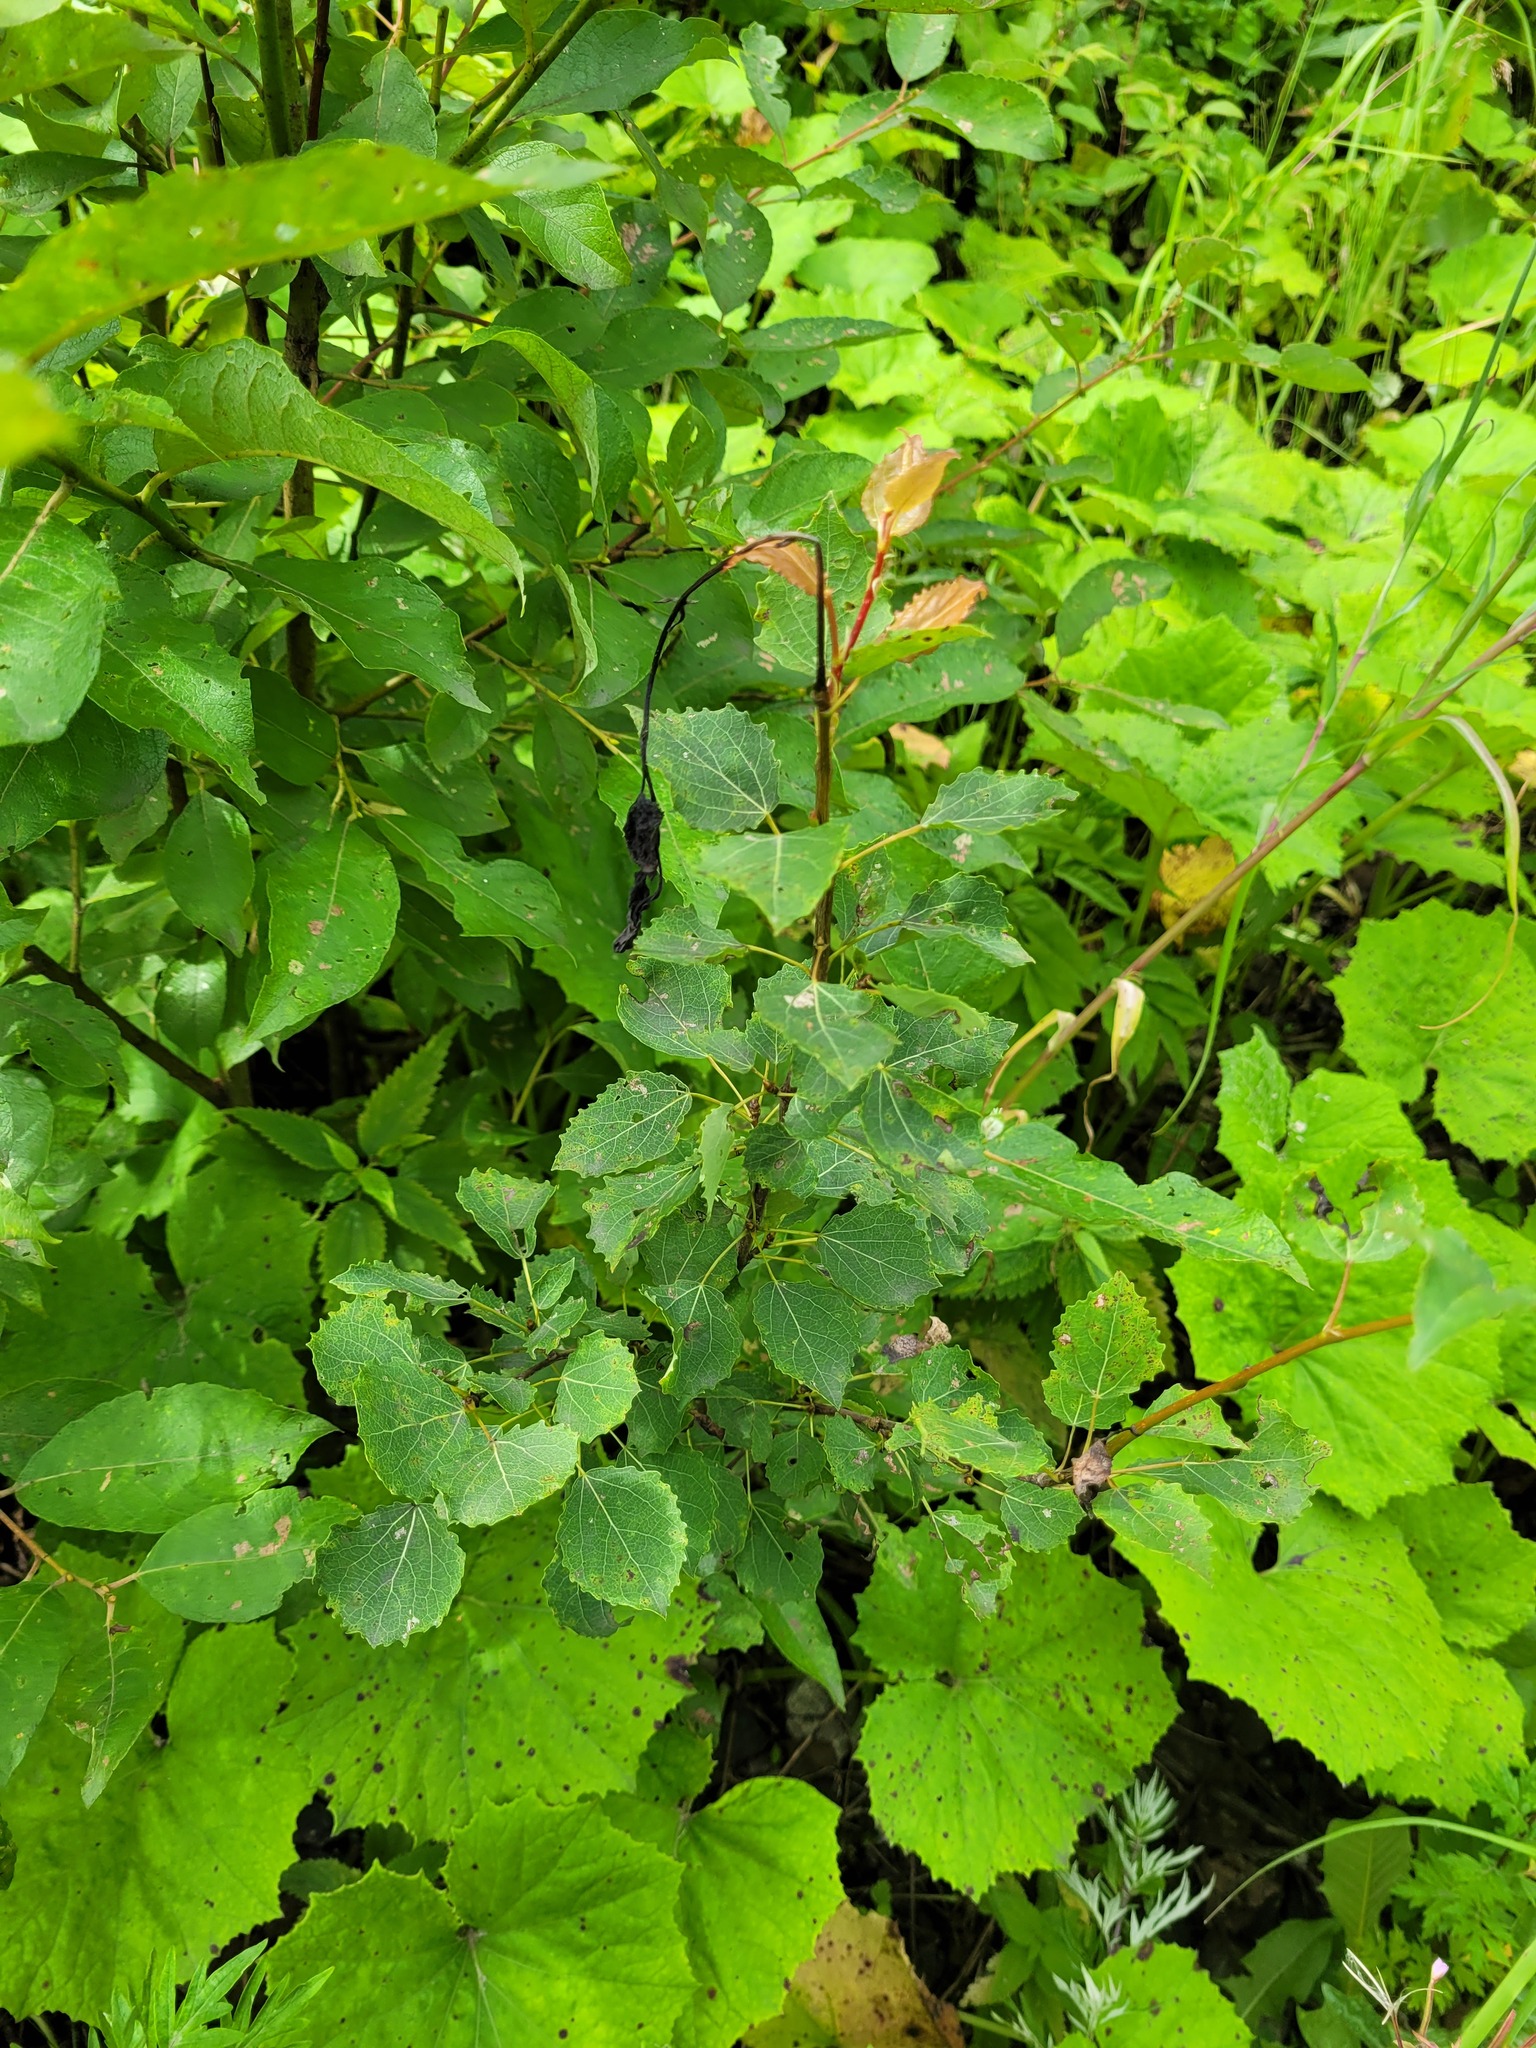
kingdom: Plantae
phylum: Tracheophyta
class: Magnoliopsida
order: Malpighiales
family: Salicaceae
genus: Populus
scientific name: Populus tremula
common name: European aspen
